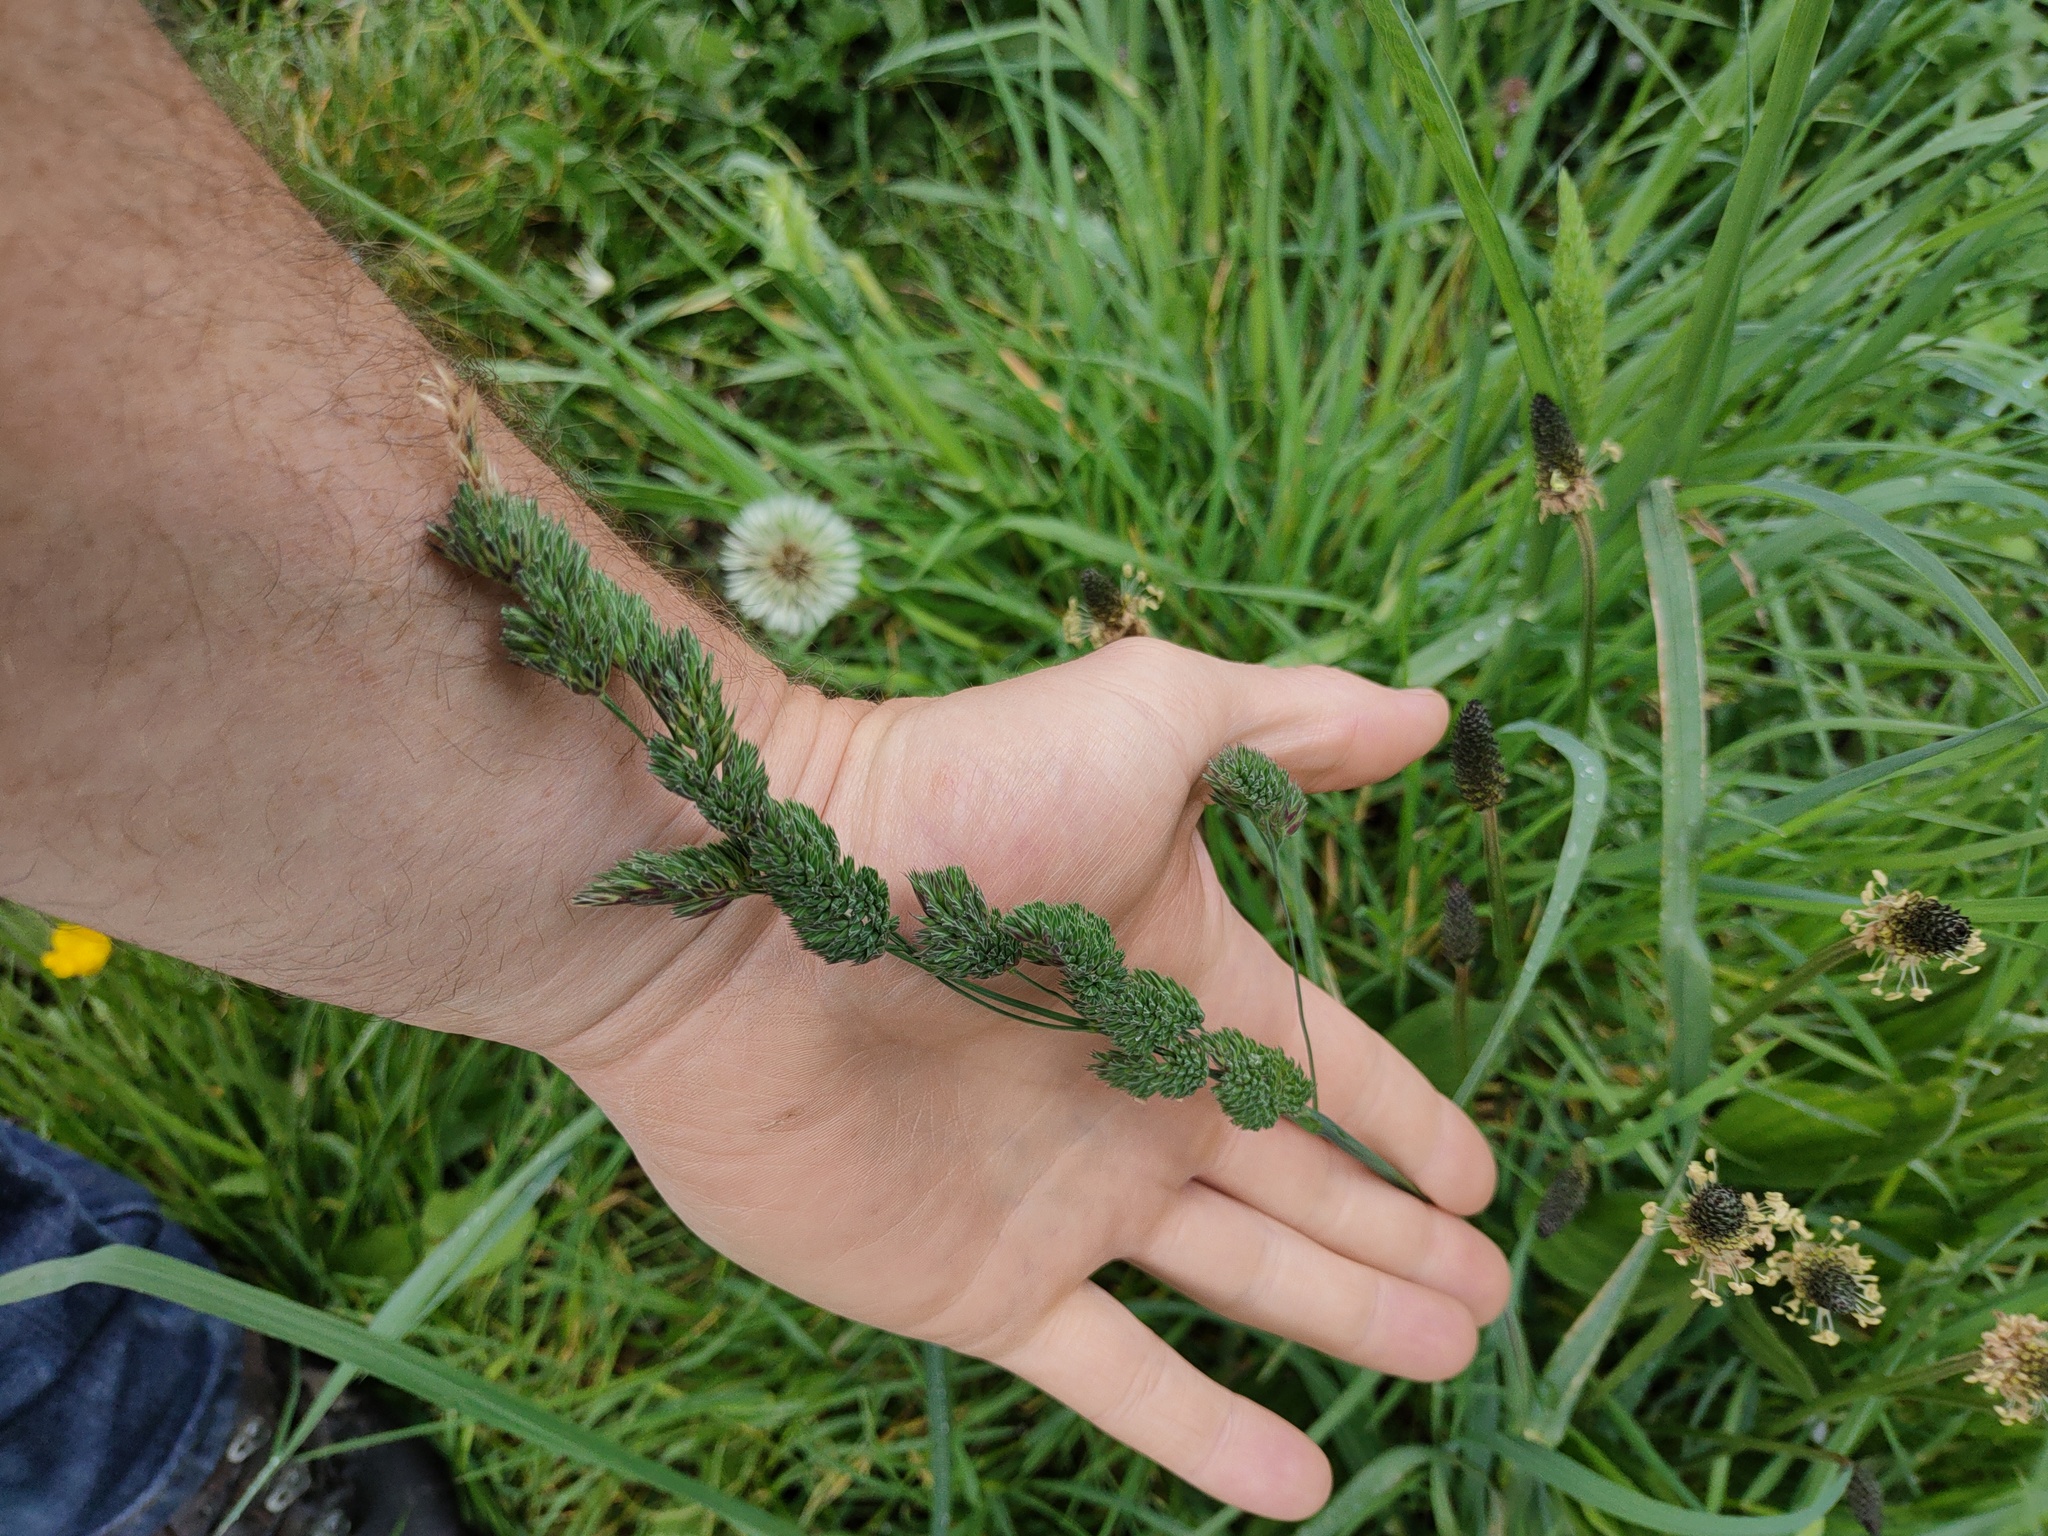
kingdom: Plantae
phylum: Tracheophyta
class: Liliopsida
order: Poales
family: Poaceae
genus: Dactylis
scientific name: Dactylis glomerata
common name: Orchardgrass
